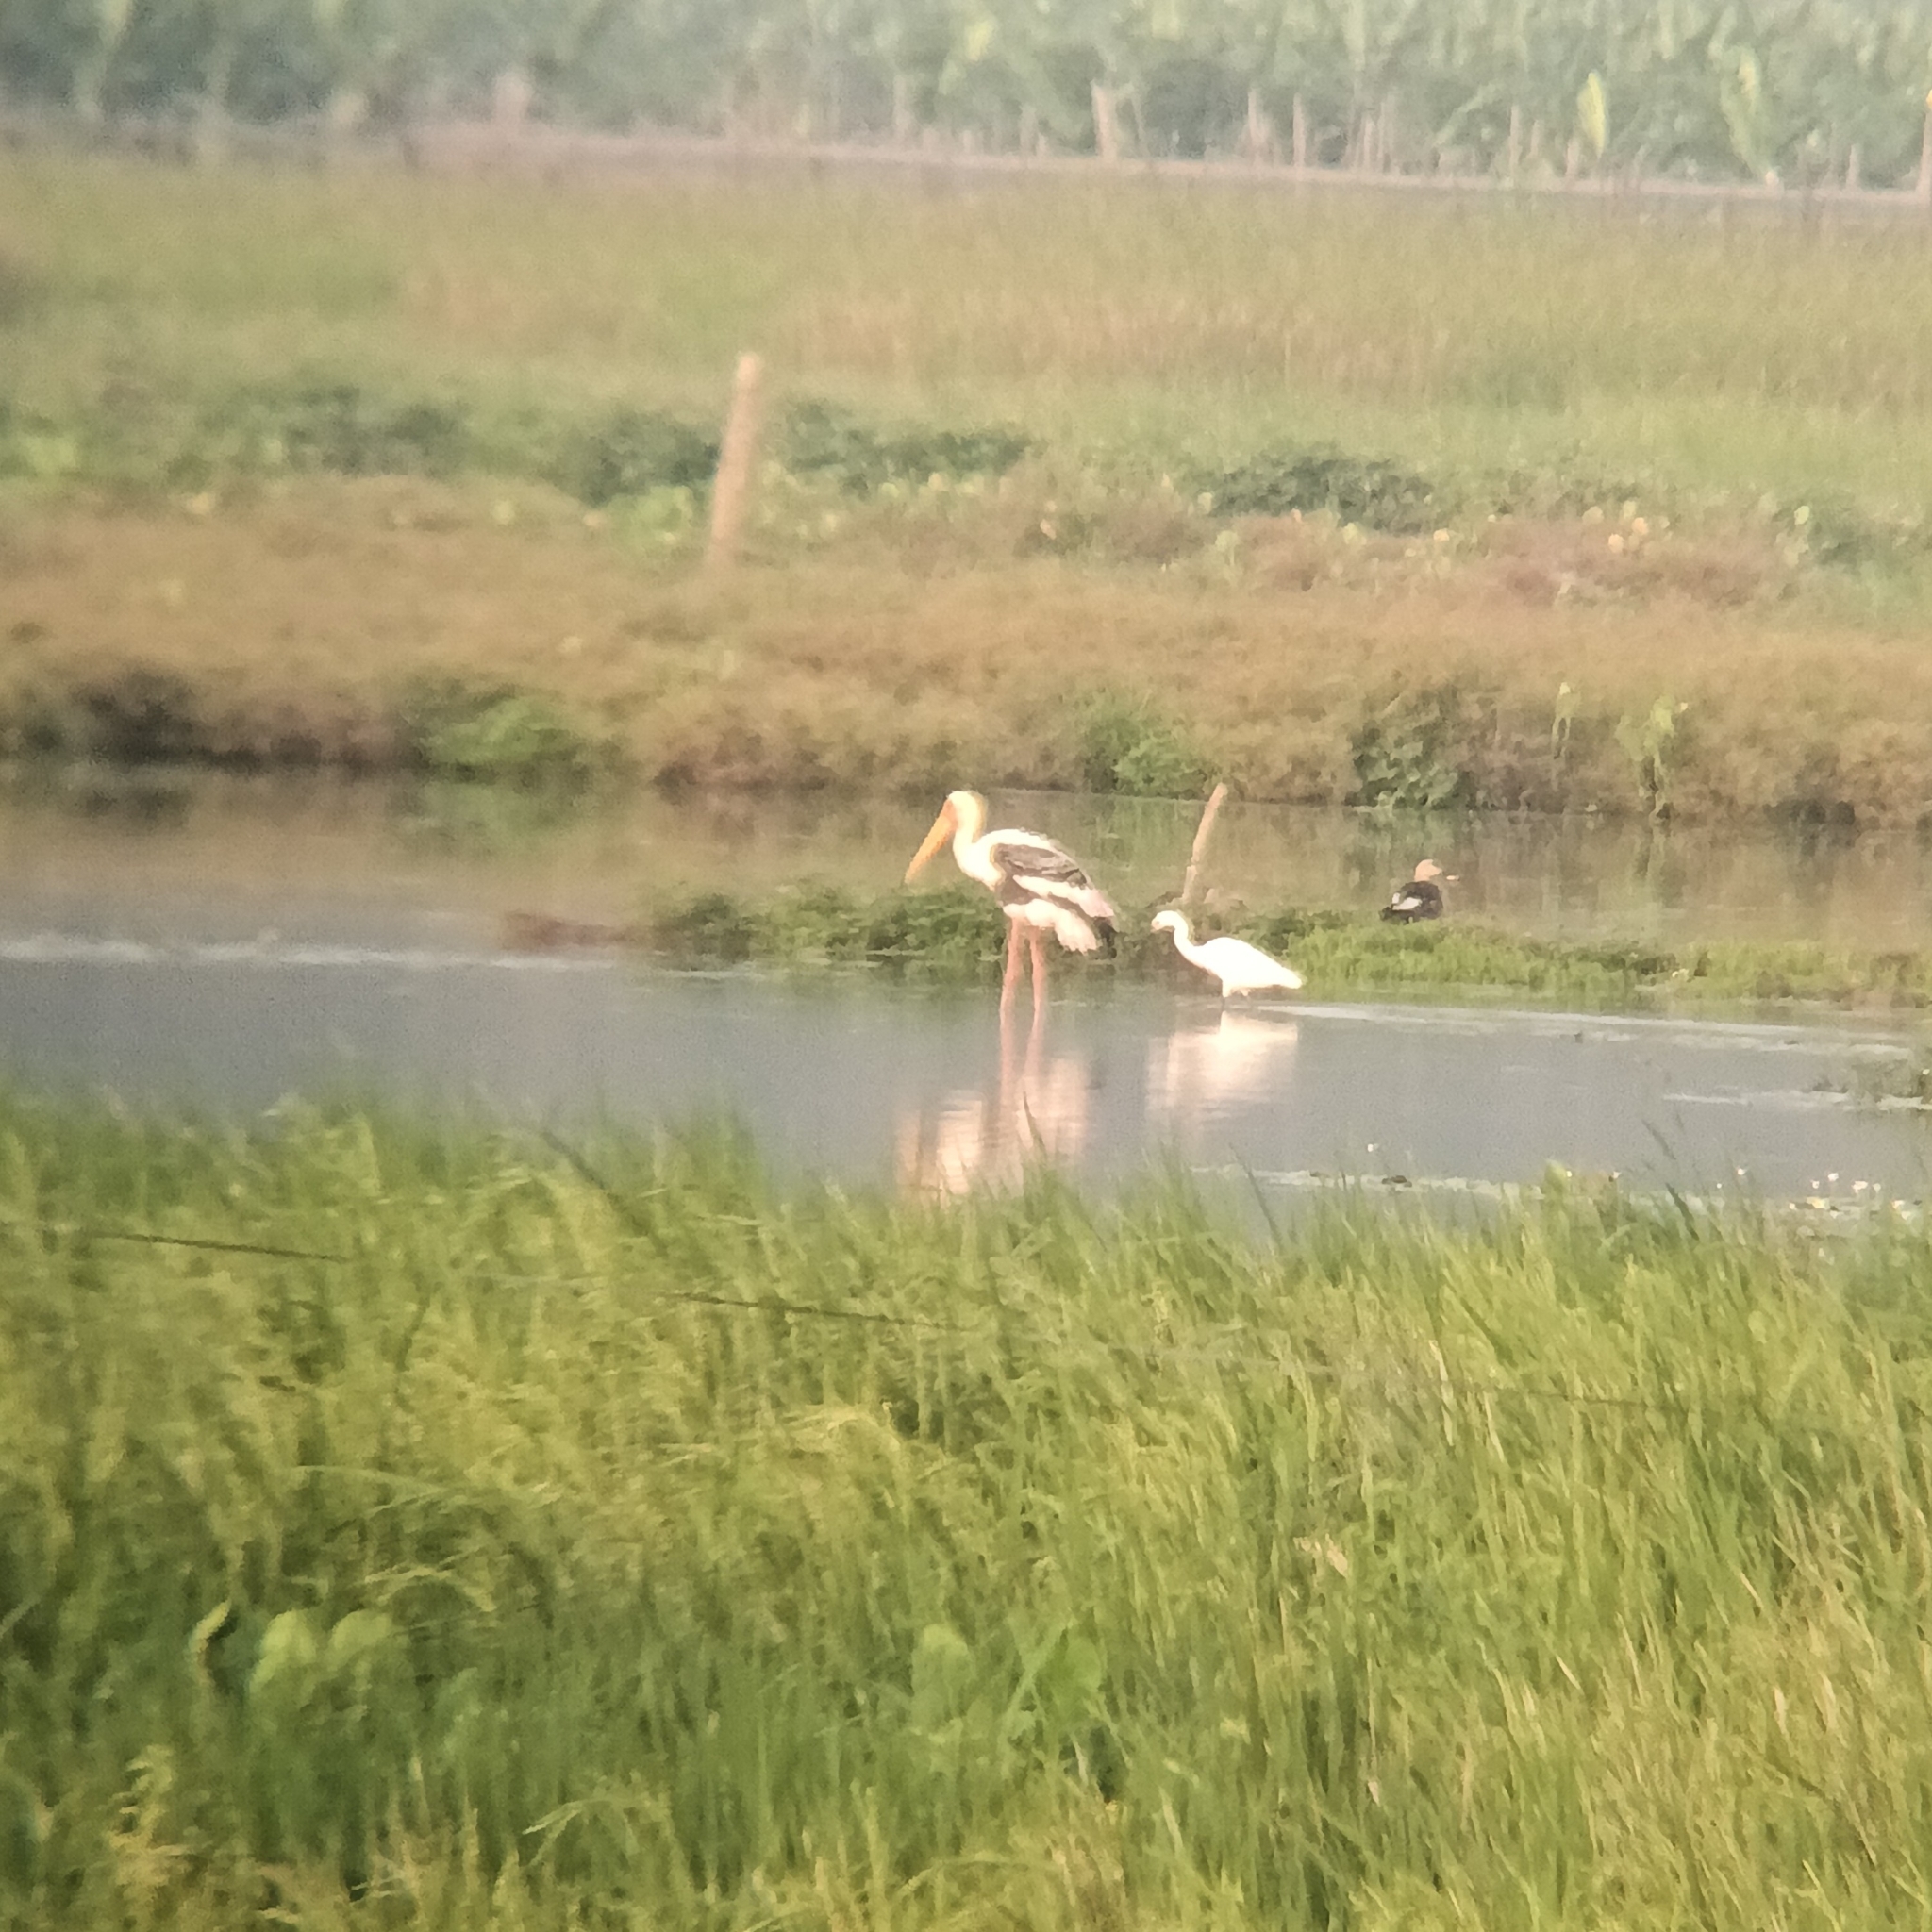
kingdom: Animalia
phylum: Chordata
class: Aves
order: Ciconiiformes
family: Ciconiidae
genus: Mycteria
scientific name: Mycteria leucocephala
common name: Painted stork
